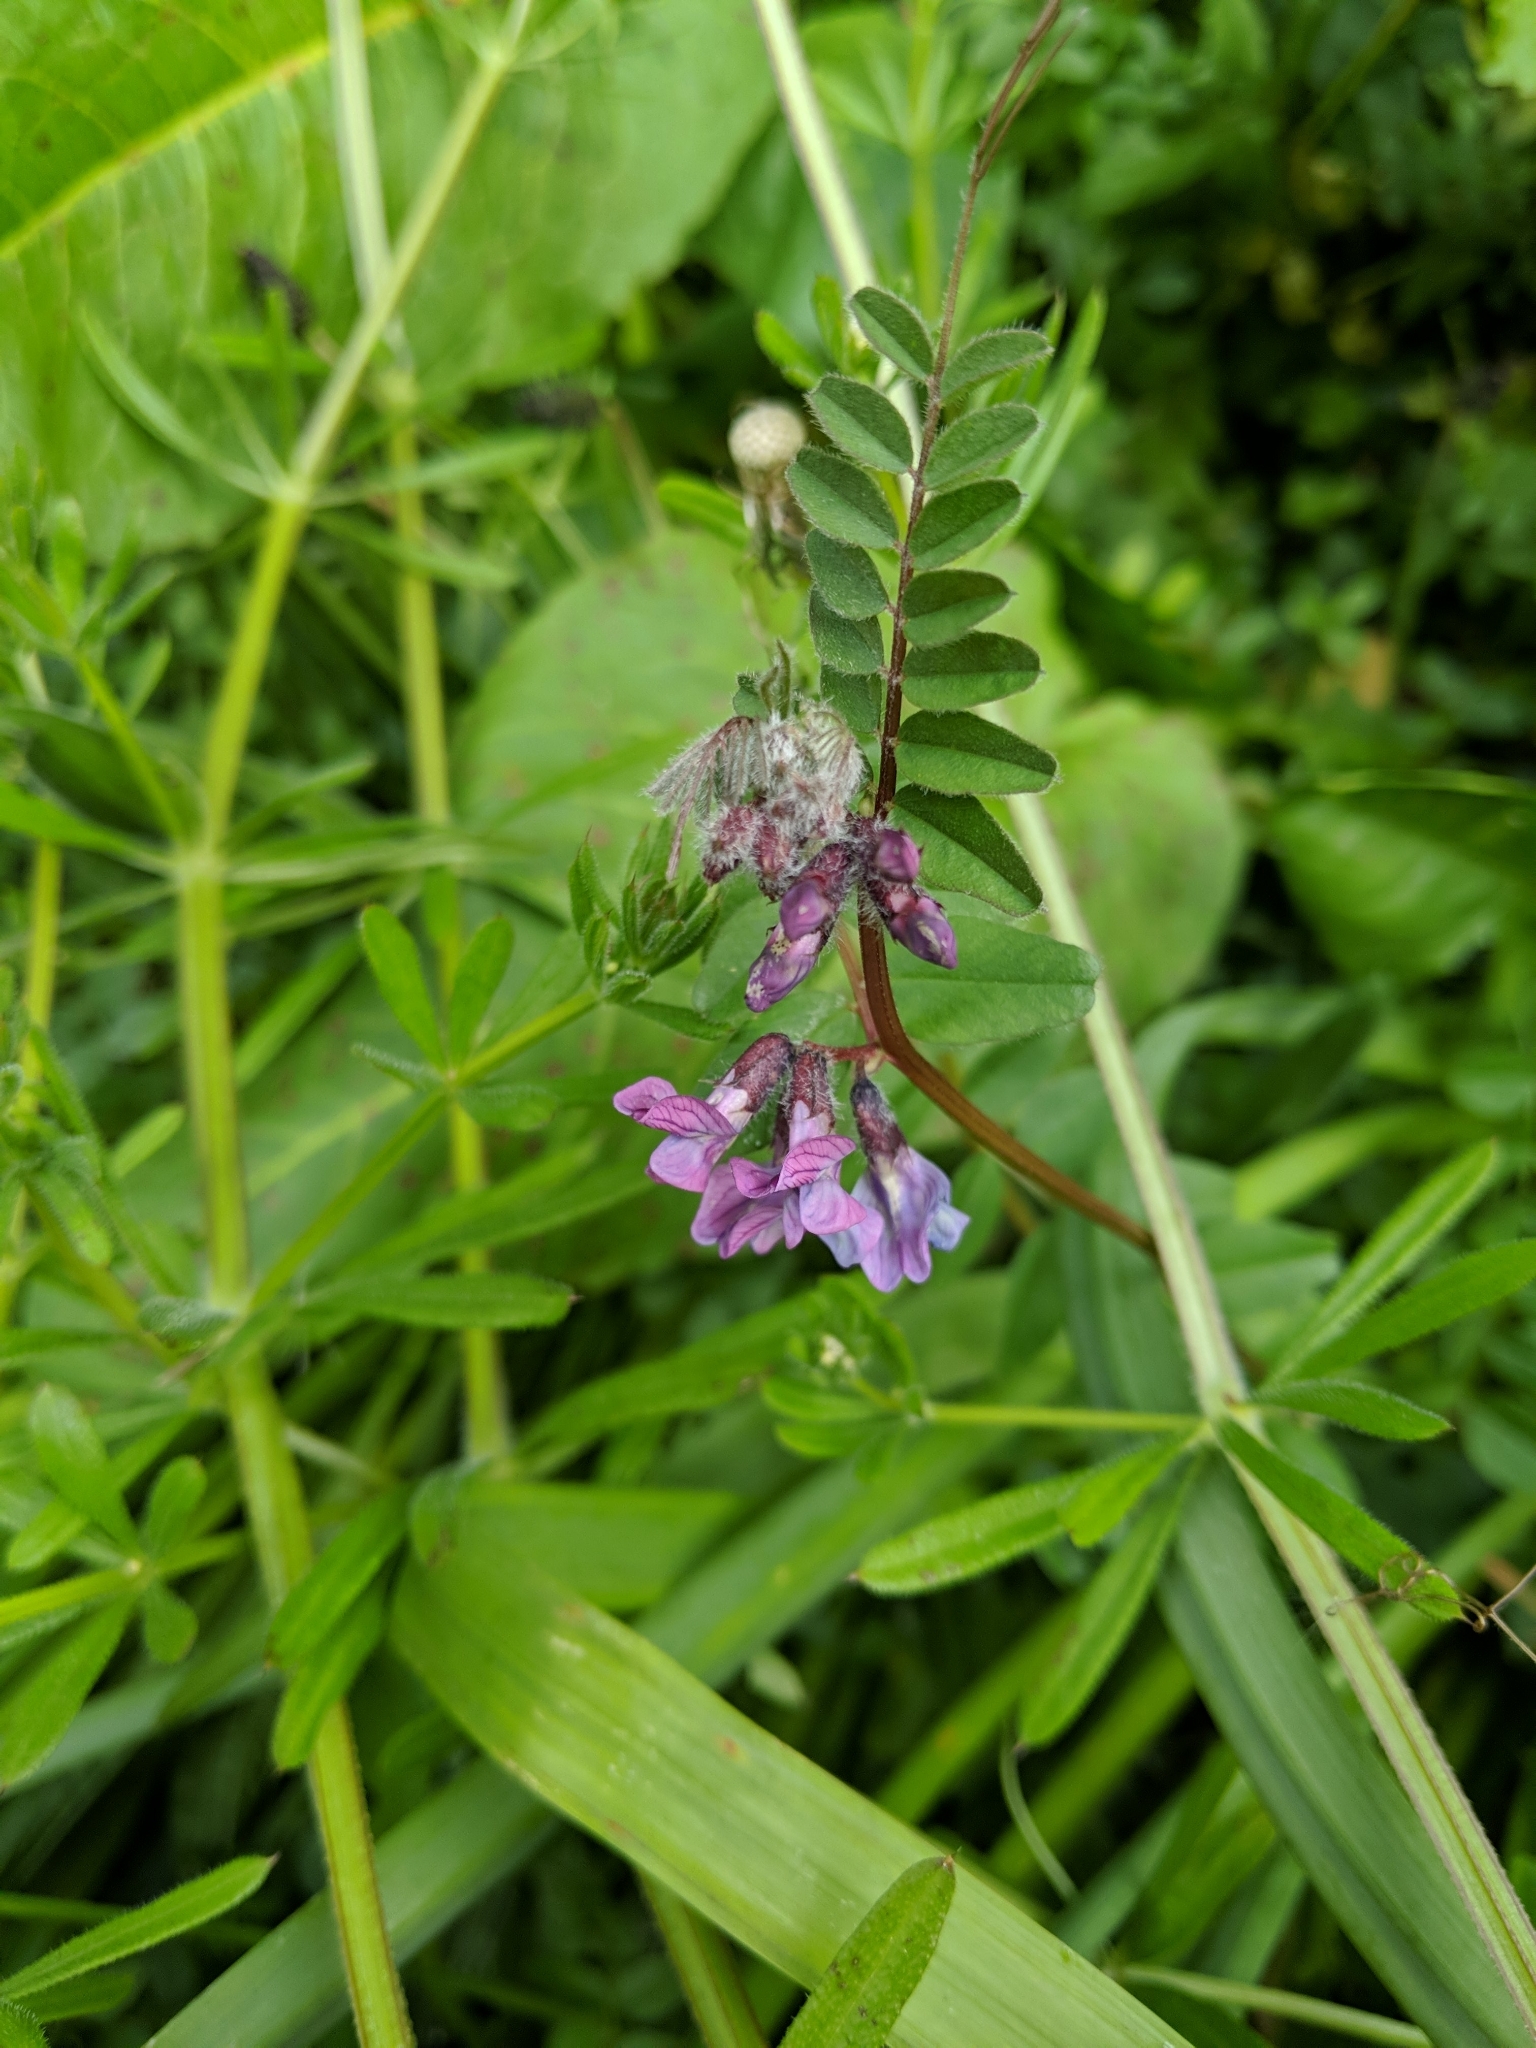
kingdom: Plantae
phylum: Tracheophyta
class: Magnoliopsida
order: Fabales
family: Fabaceae
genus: Vicia
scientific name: Vicia sepium
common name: Bush vetch
